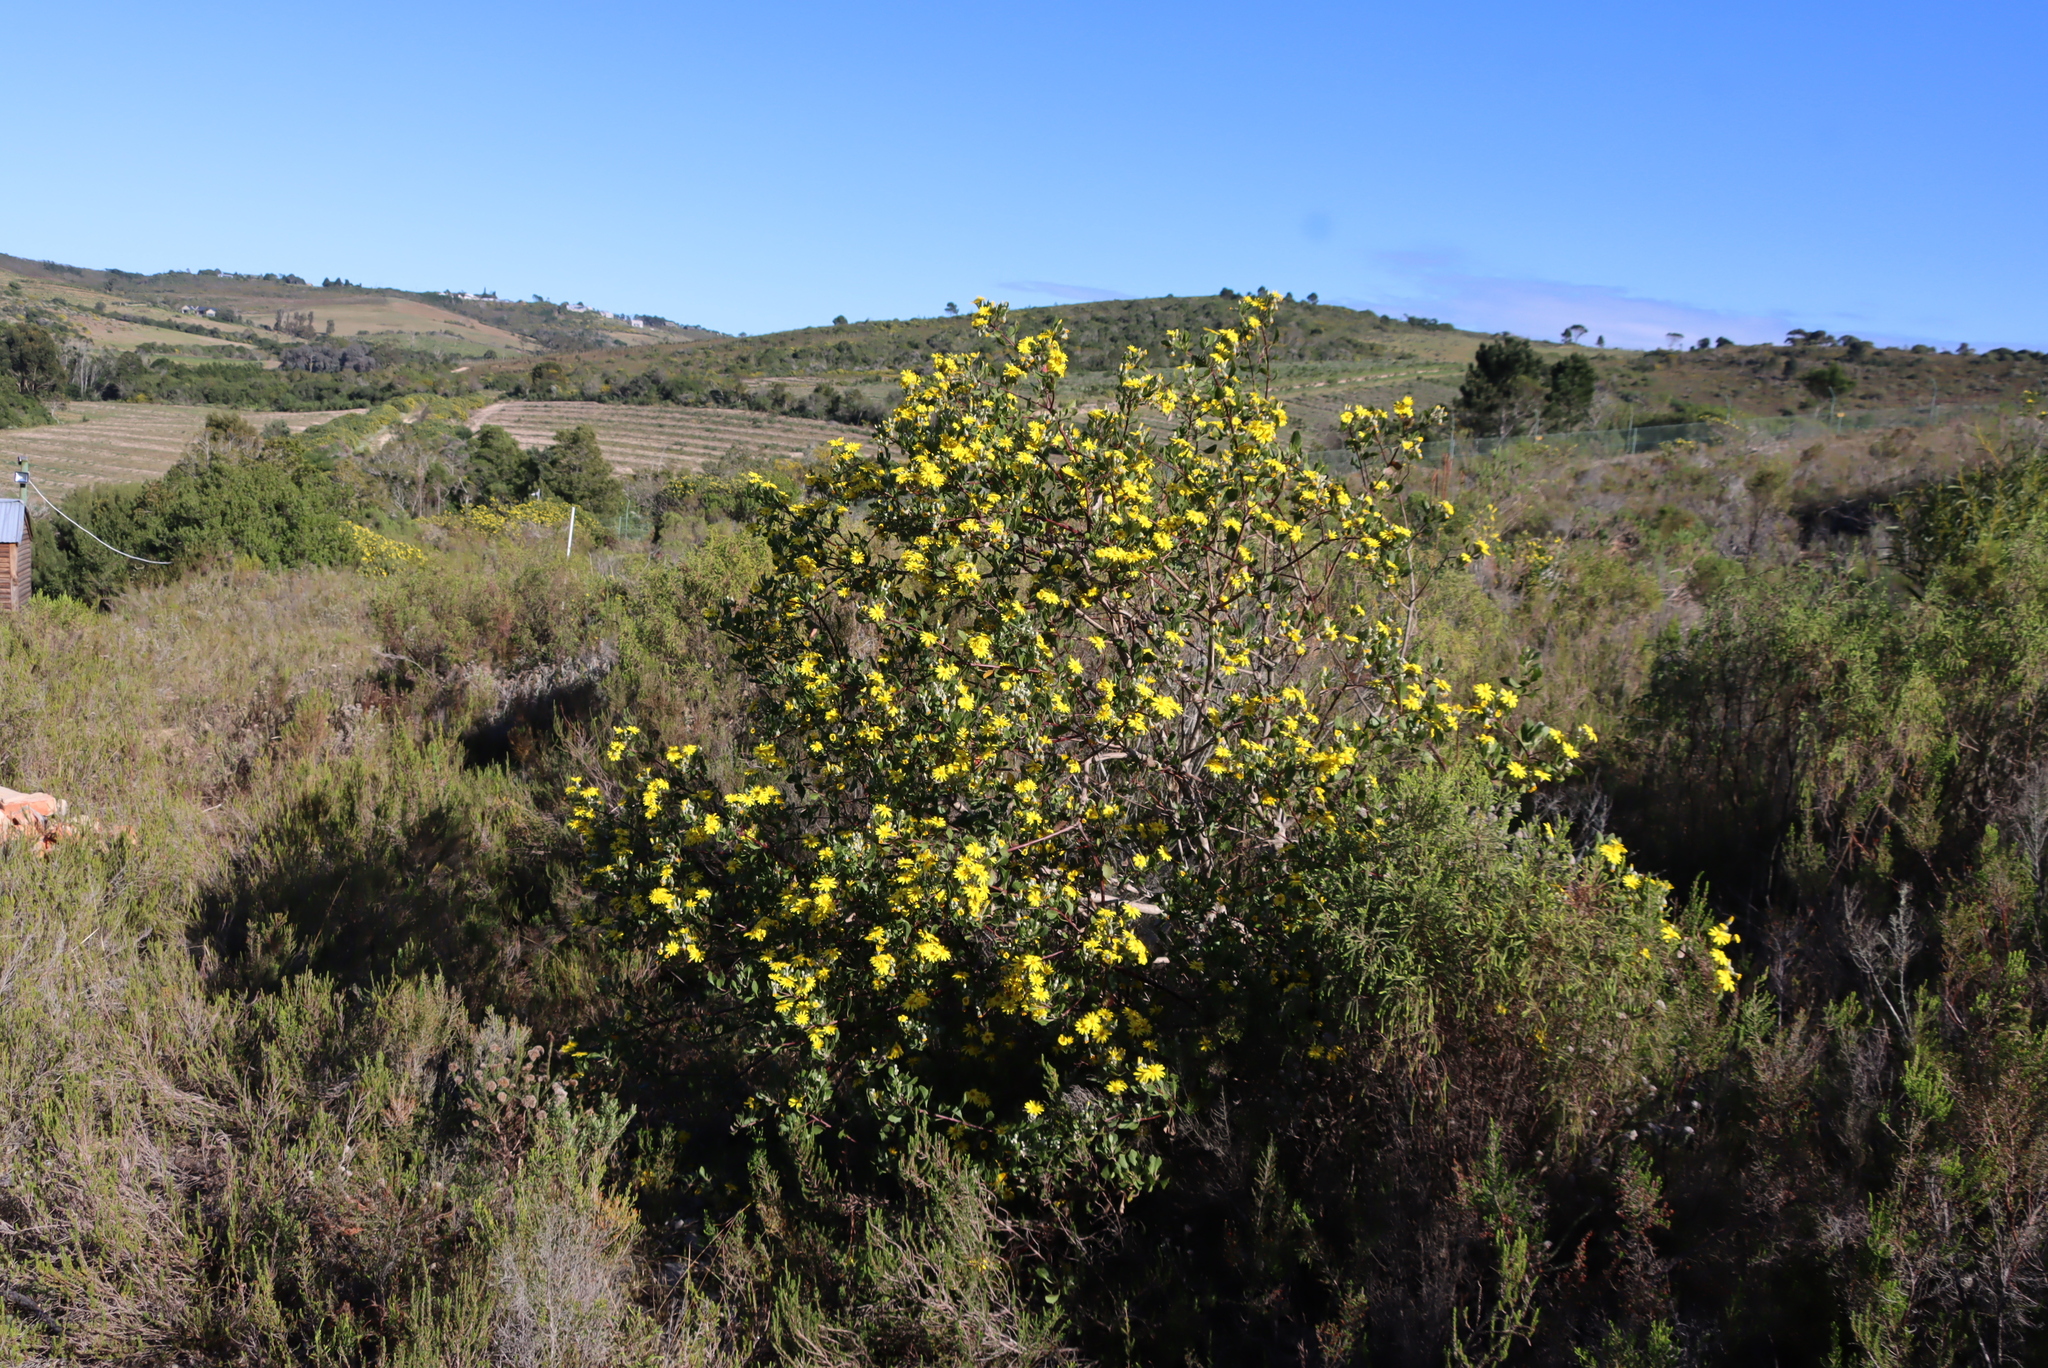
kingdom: Plantae
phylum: Tracheophyta
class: Magnoliopsida
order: Asterales
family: Asteraceae
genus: Osteospermum
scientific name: Osteospermum moniliferum
